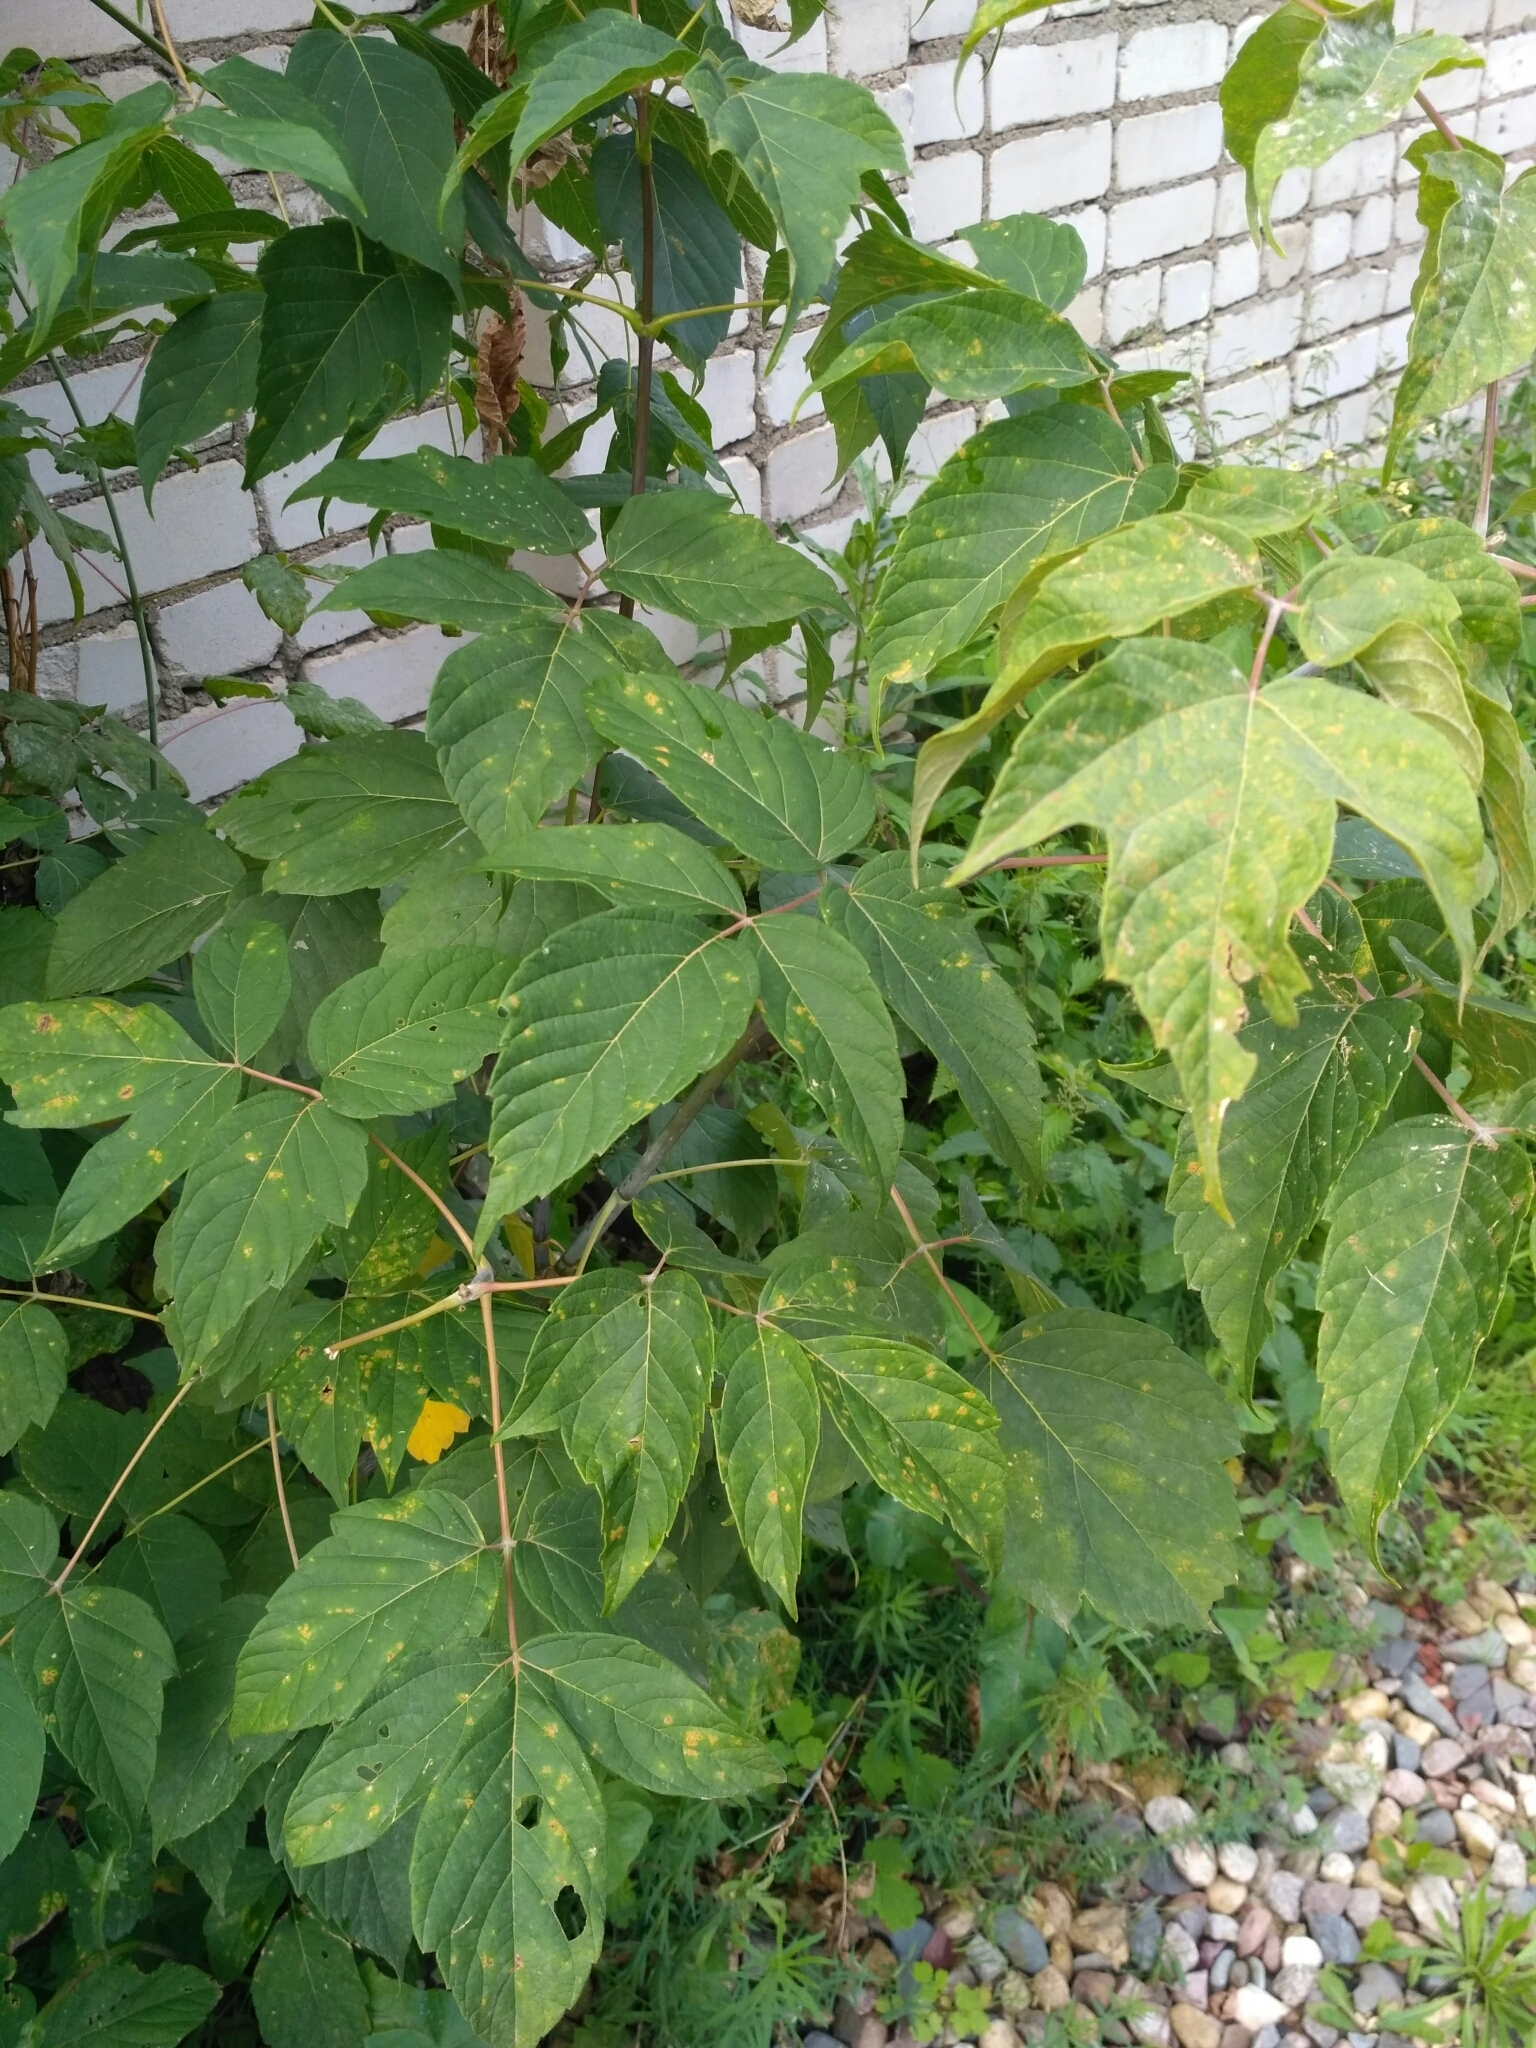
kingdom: Plantae
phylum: Tracheophyta
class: Magnoliopsida
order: Sapindales
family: Sapindaceae
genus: Acer
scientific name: Acer negundo
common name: Ashleaf maple
